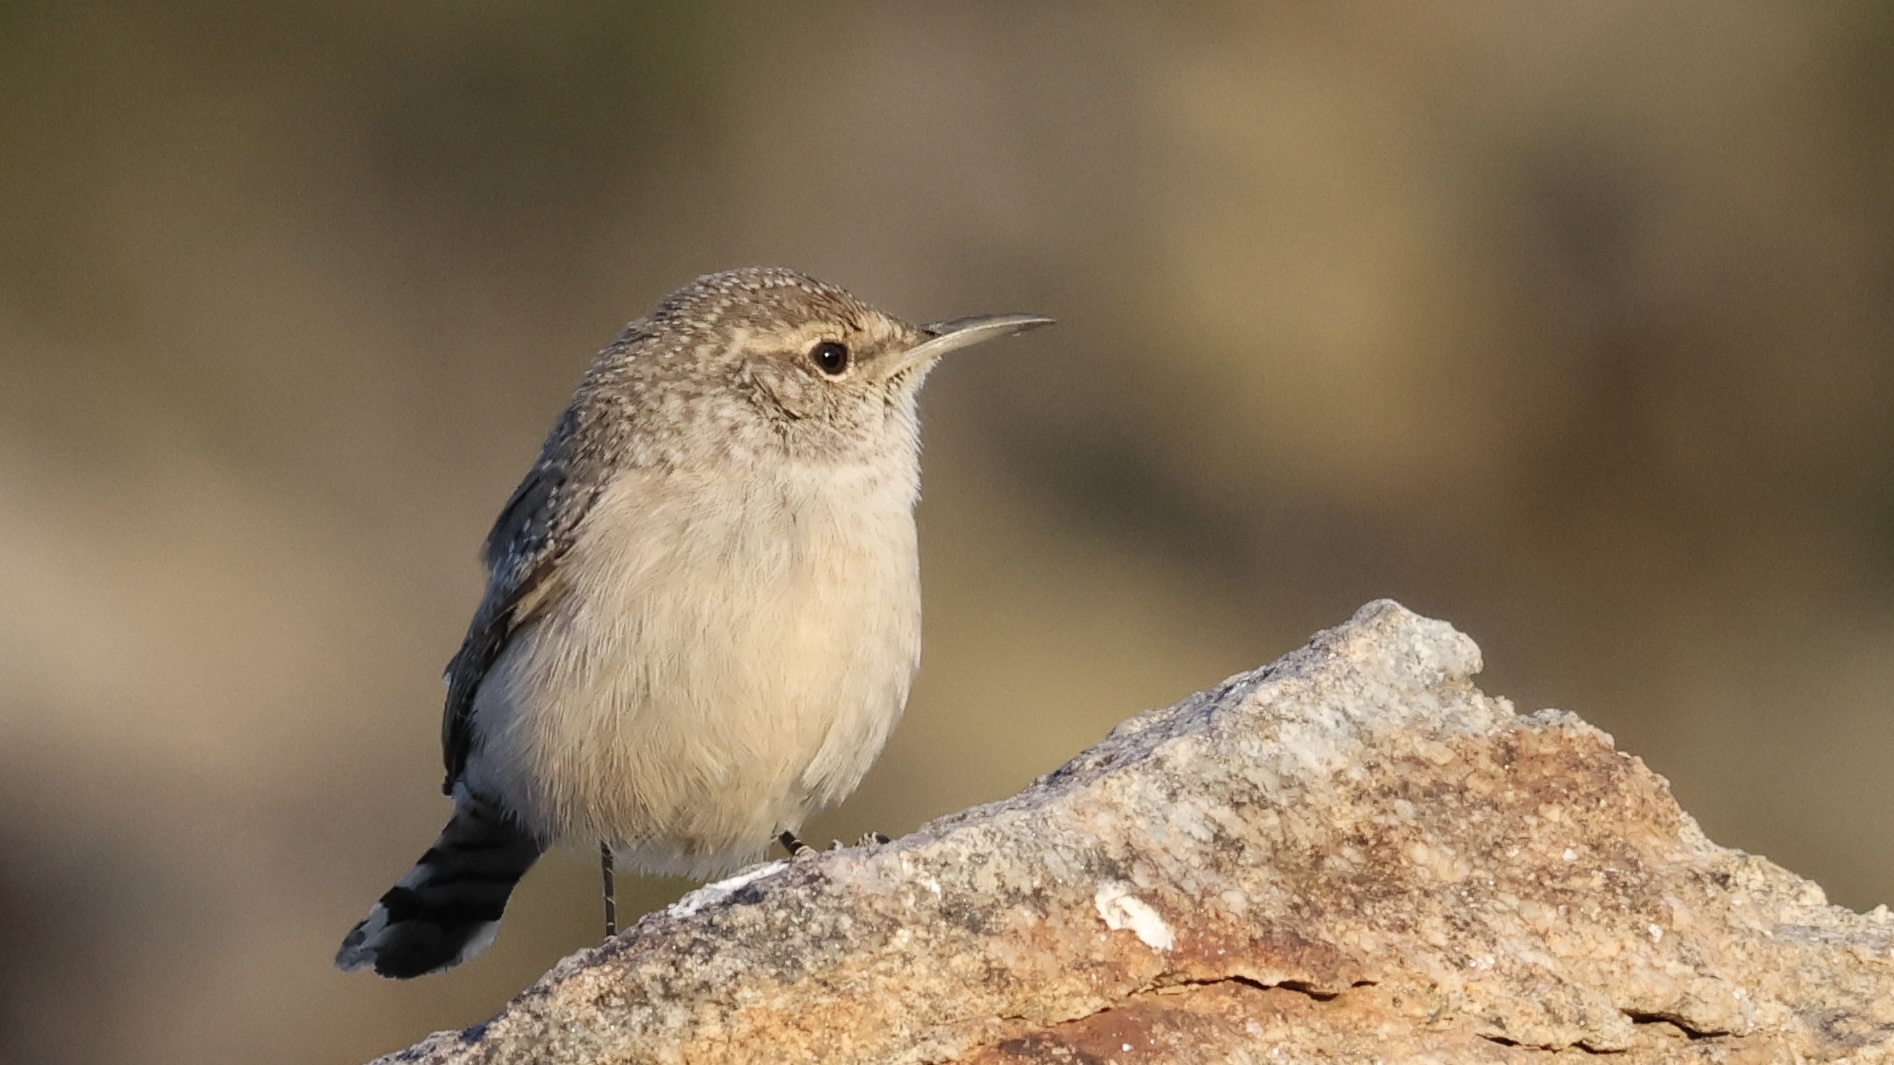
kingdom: Animalia
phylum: Chordata
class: Aves
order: Passeriformes
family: Troglodytidae
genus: Salpinctes
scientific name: Salpinctes obsoletus
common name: Rock wren
